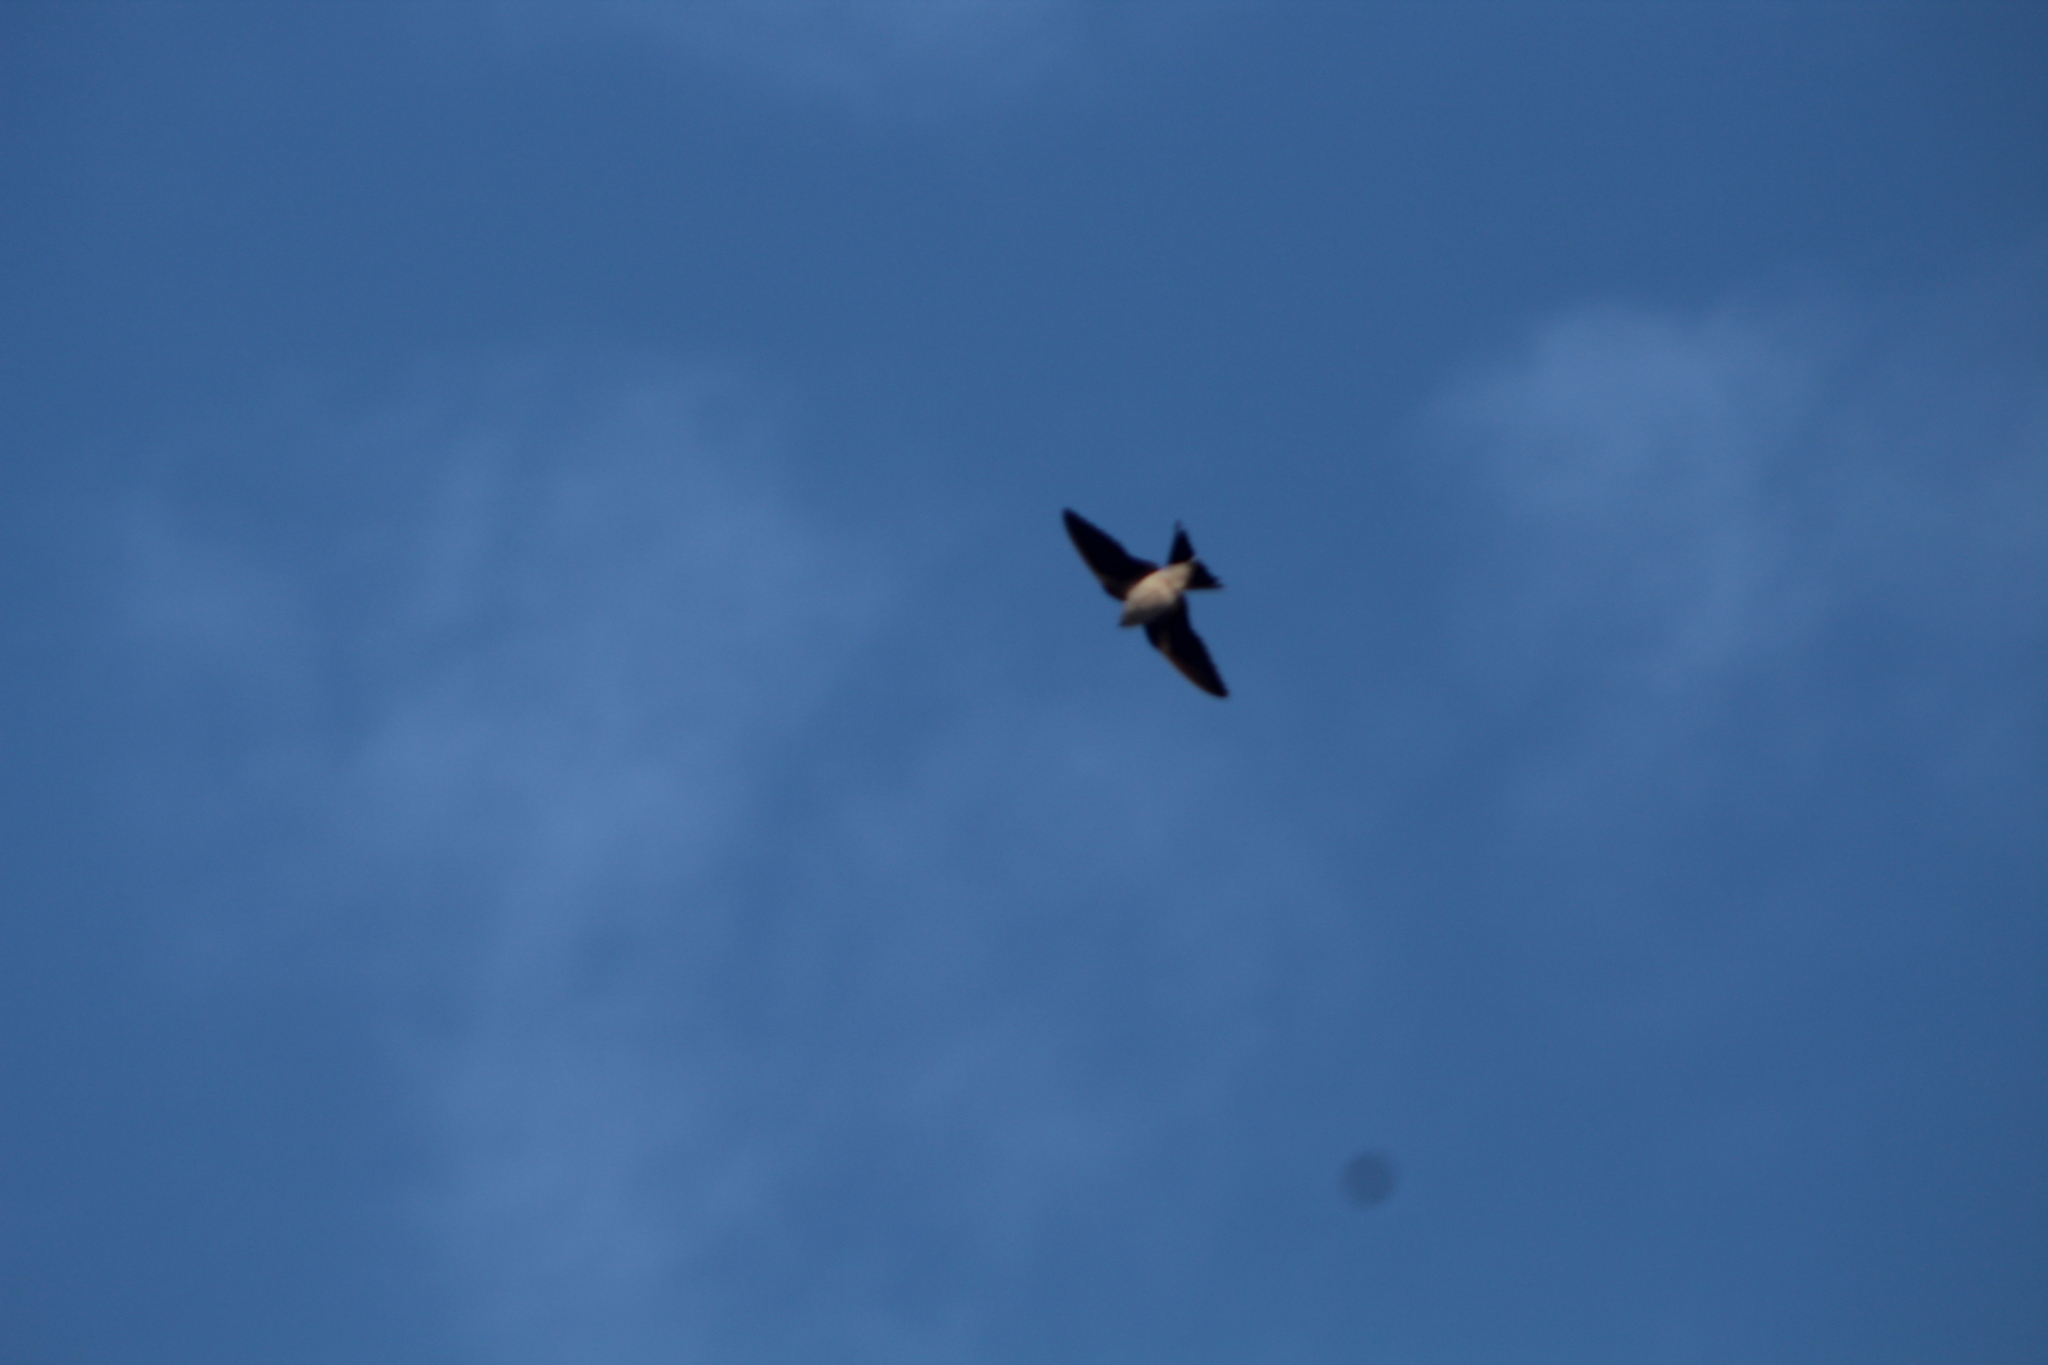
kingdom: Animalia
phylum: Chordata
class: Aves
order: Passeriformes
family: Hirundinidae
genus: Delichon
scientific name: Delichon urbicum
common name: Common house martin
